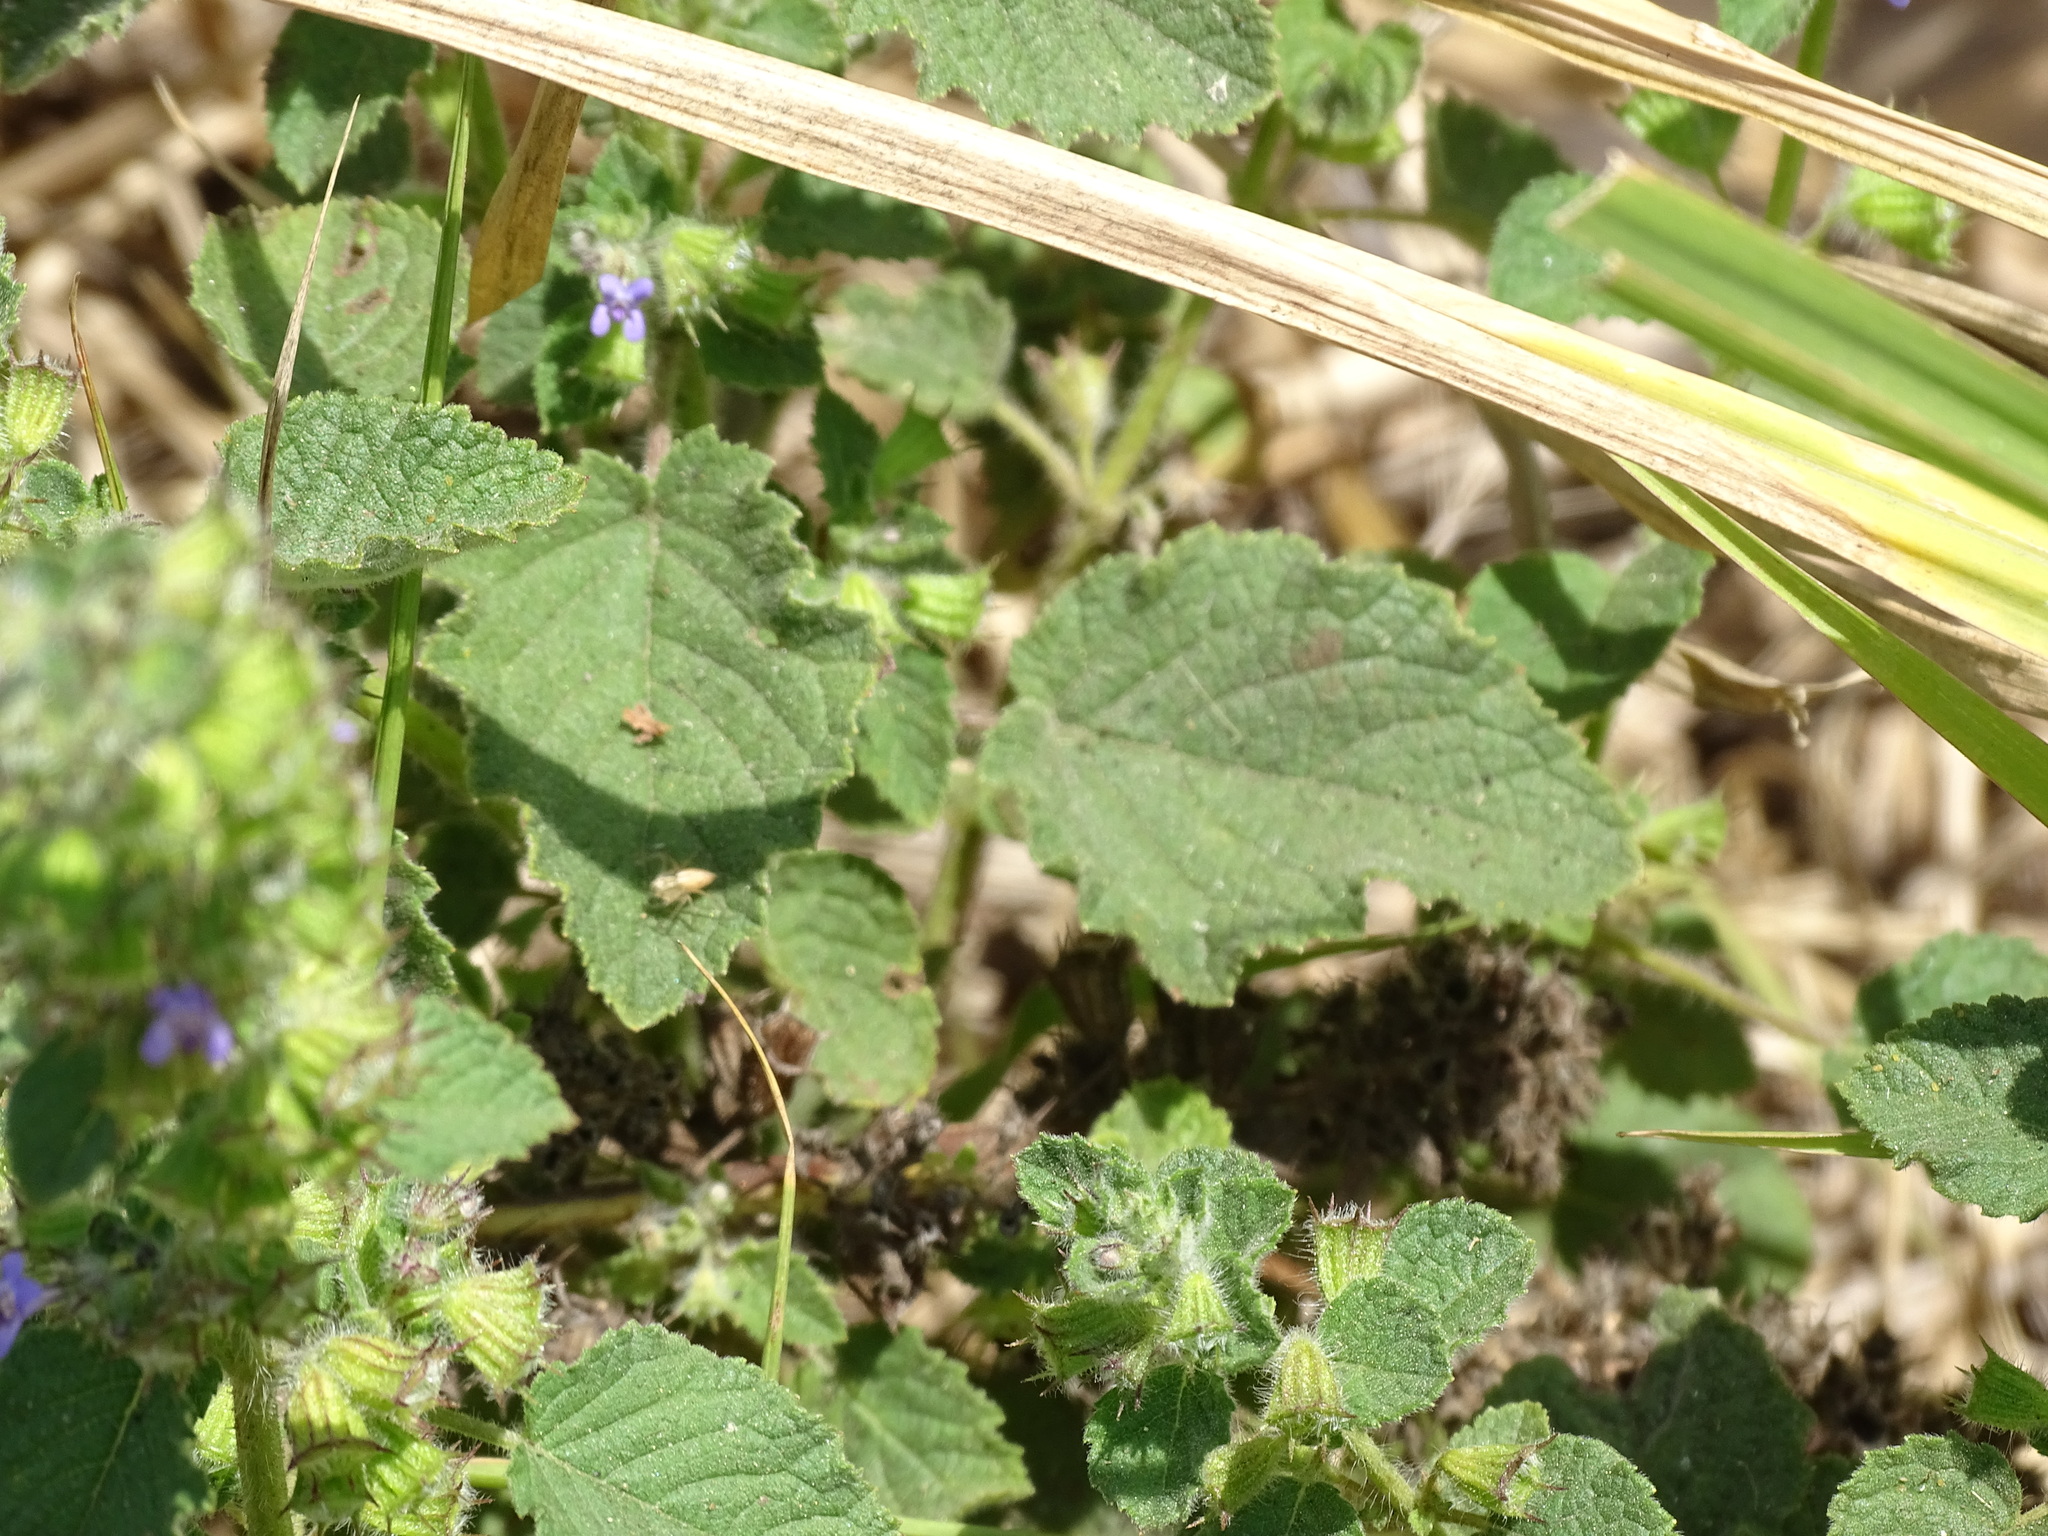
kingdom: Plantae
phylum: Tracheophyta
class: Magnoliopsida
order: Lamiales
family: Lamiaceae
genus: Mesosphaerum
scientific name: Mesosphaerum suaveolens
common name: Pignut
